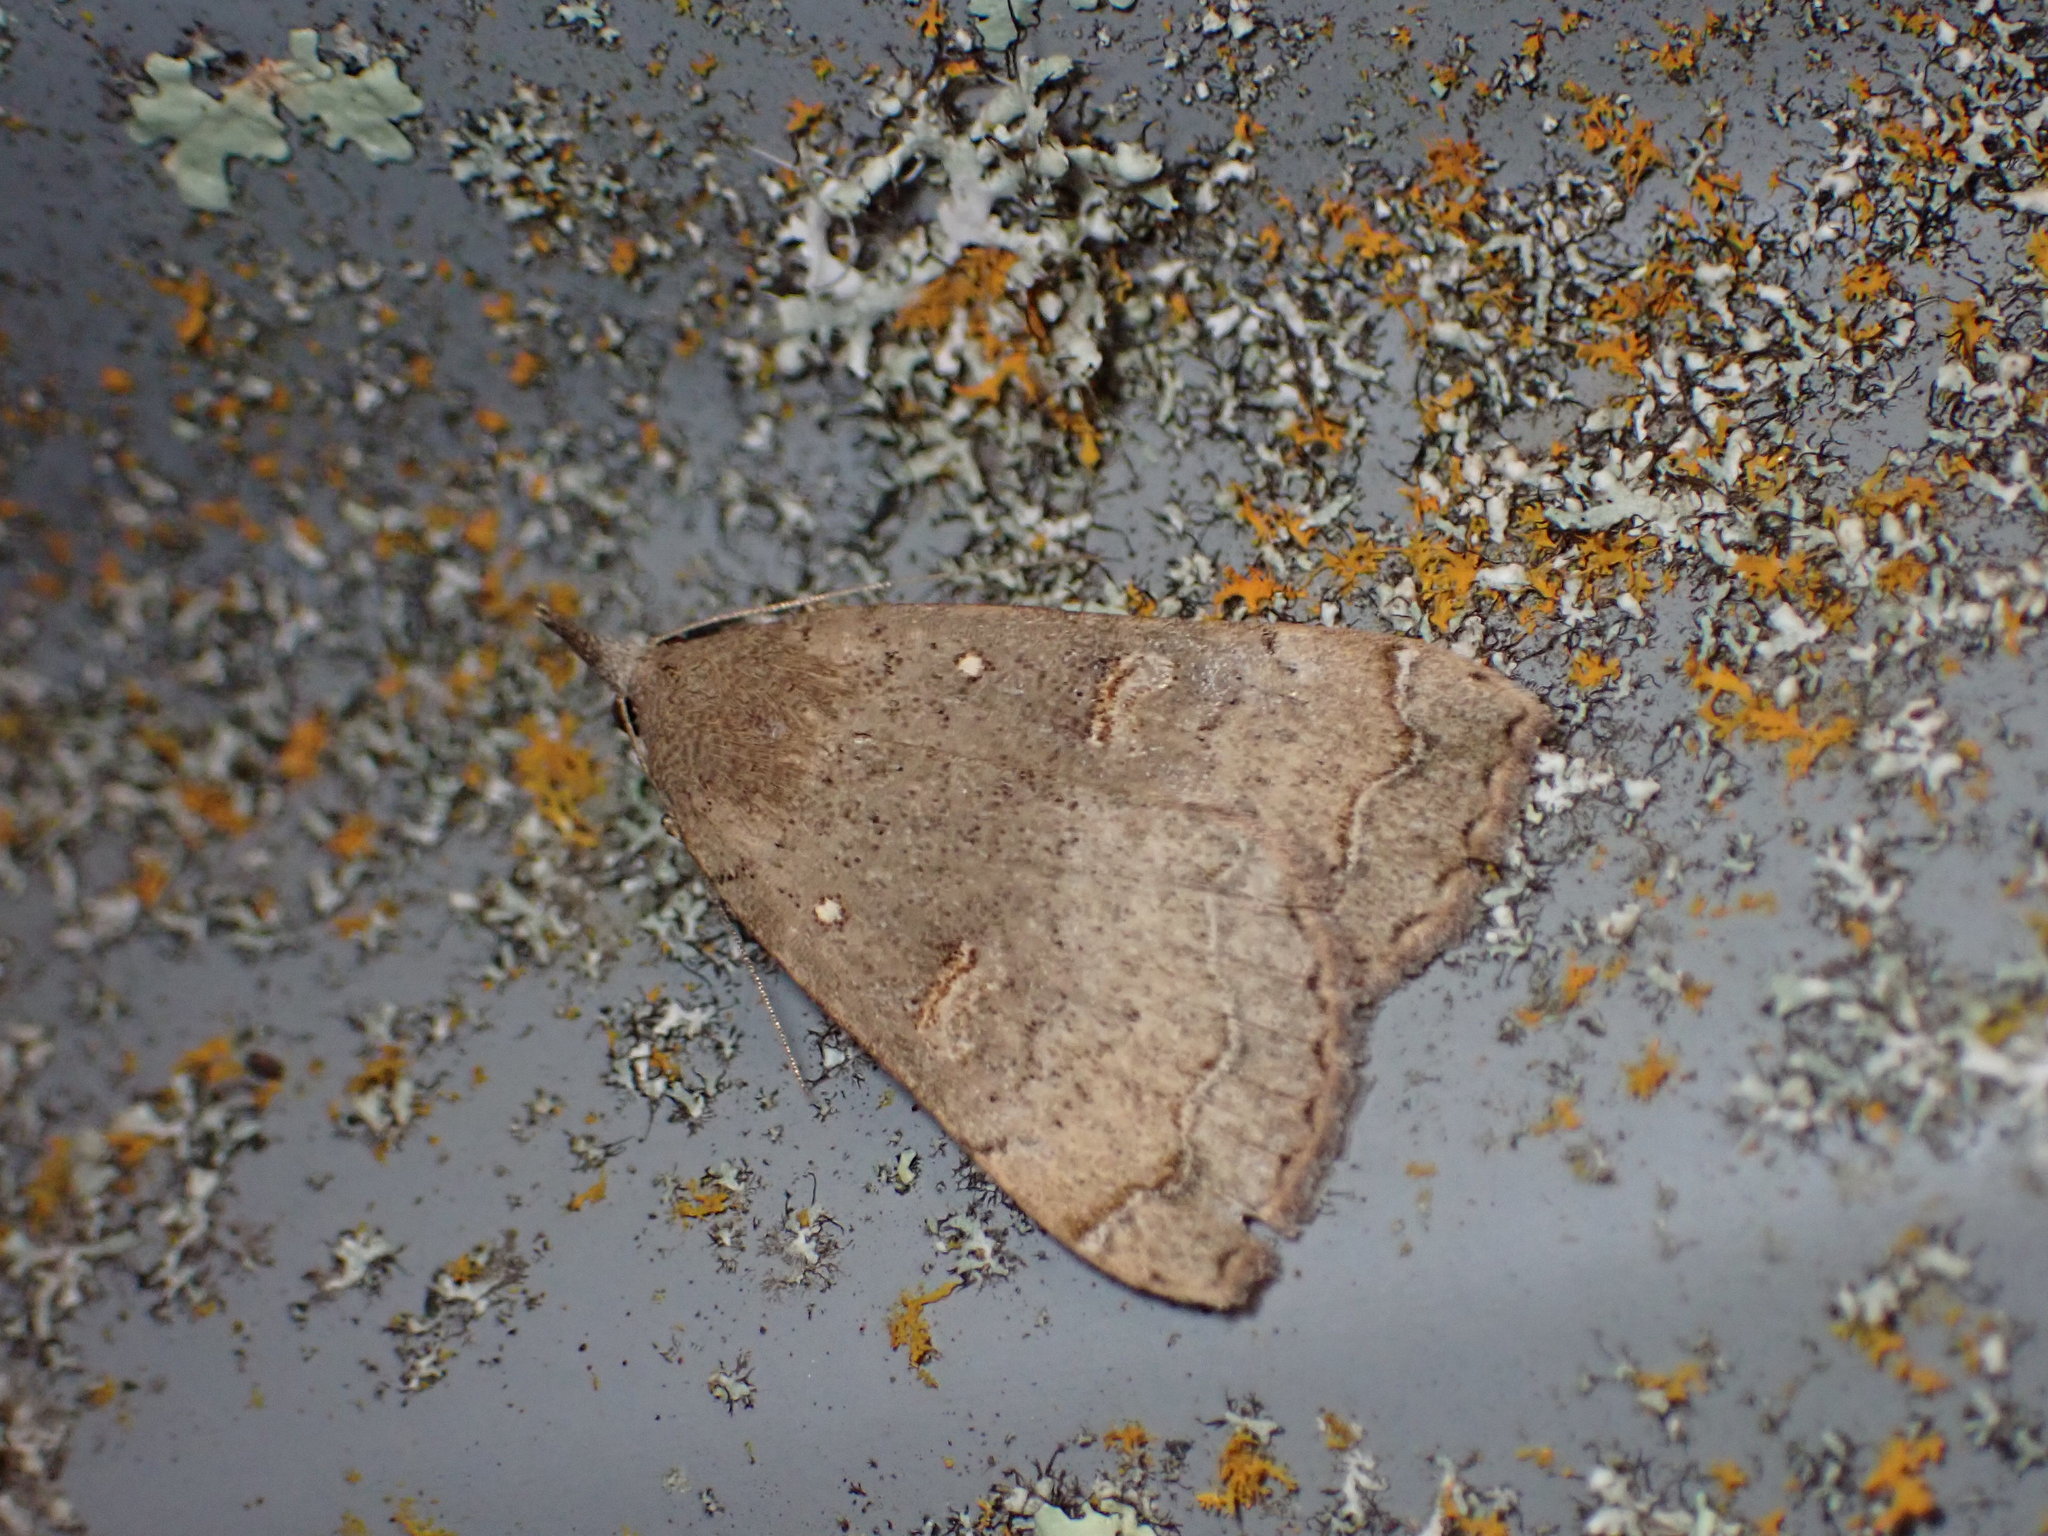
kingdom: Animalia
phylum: Arthropoda
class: Insecta
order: Lepidoptera
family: Erebidae
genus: Rhapsa
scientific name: Rhapsa scotosialis
